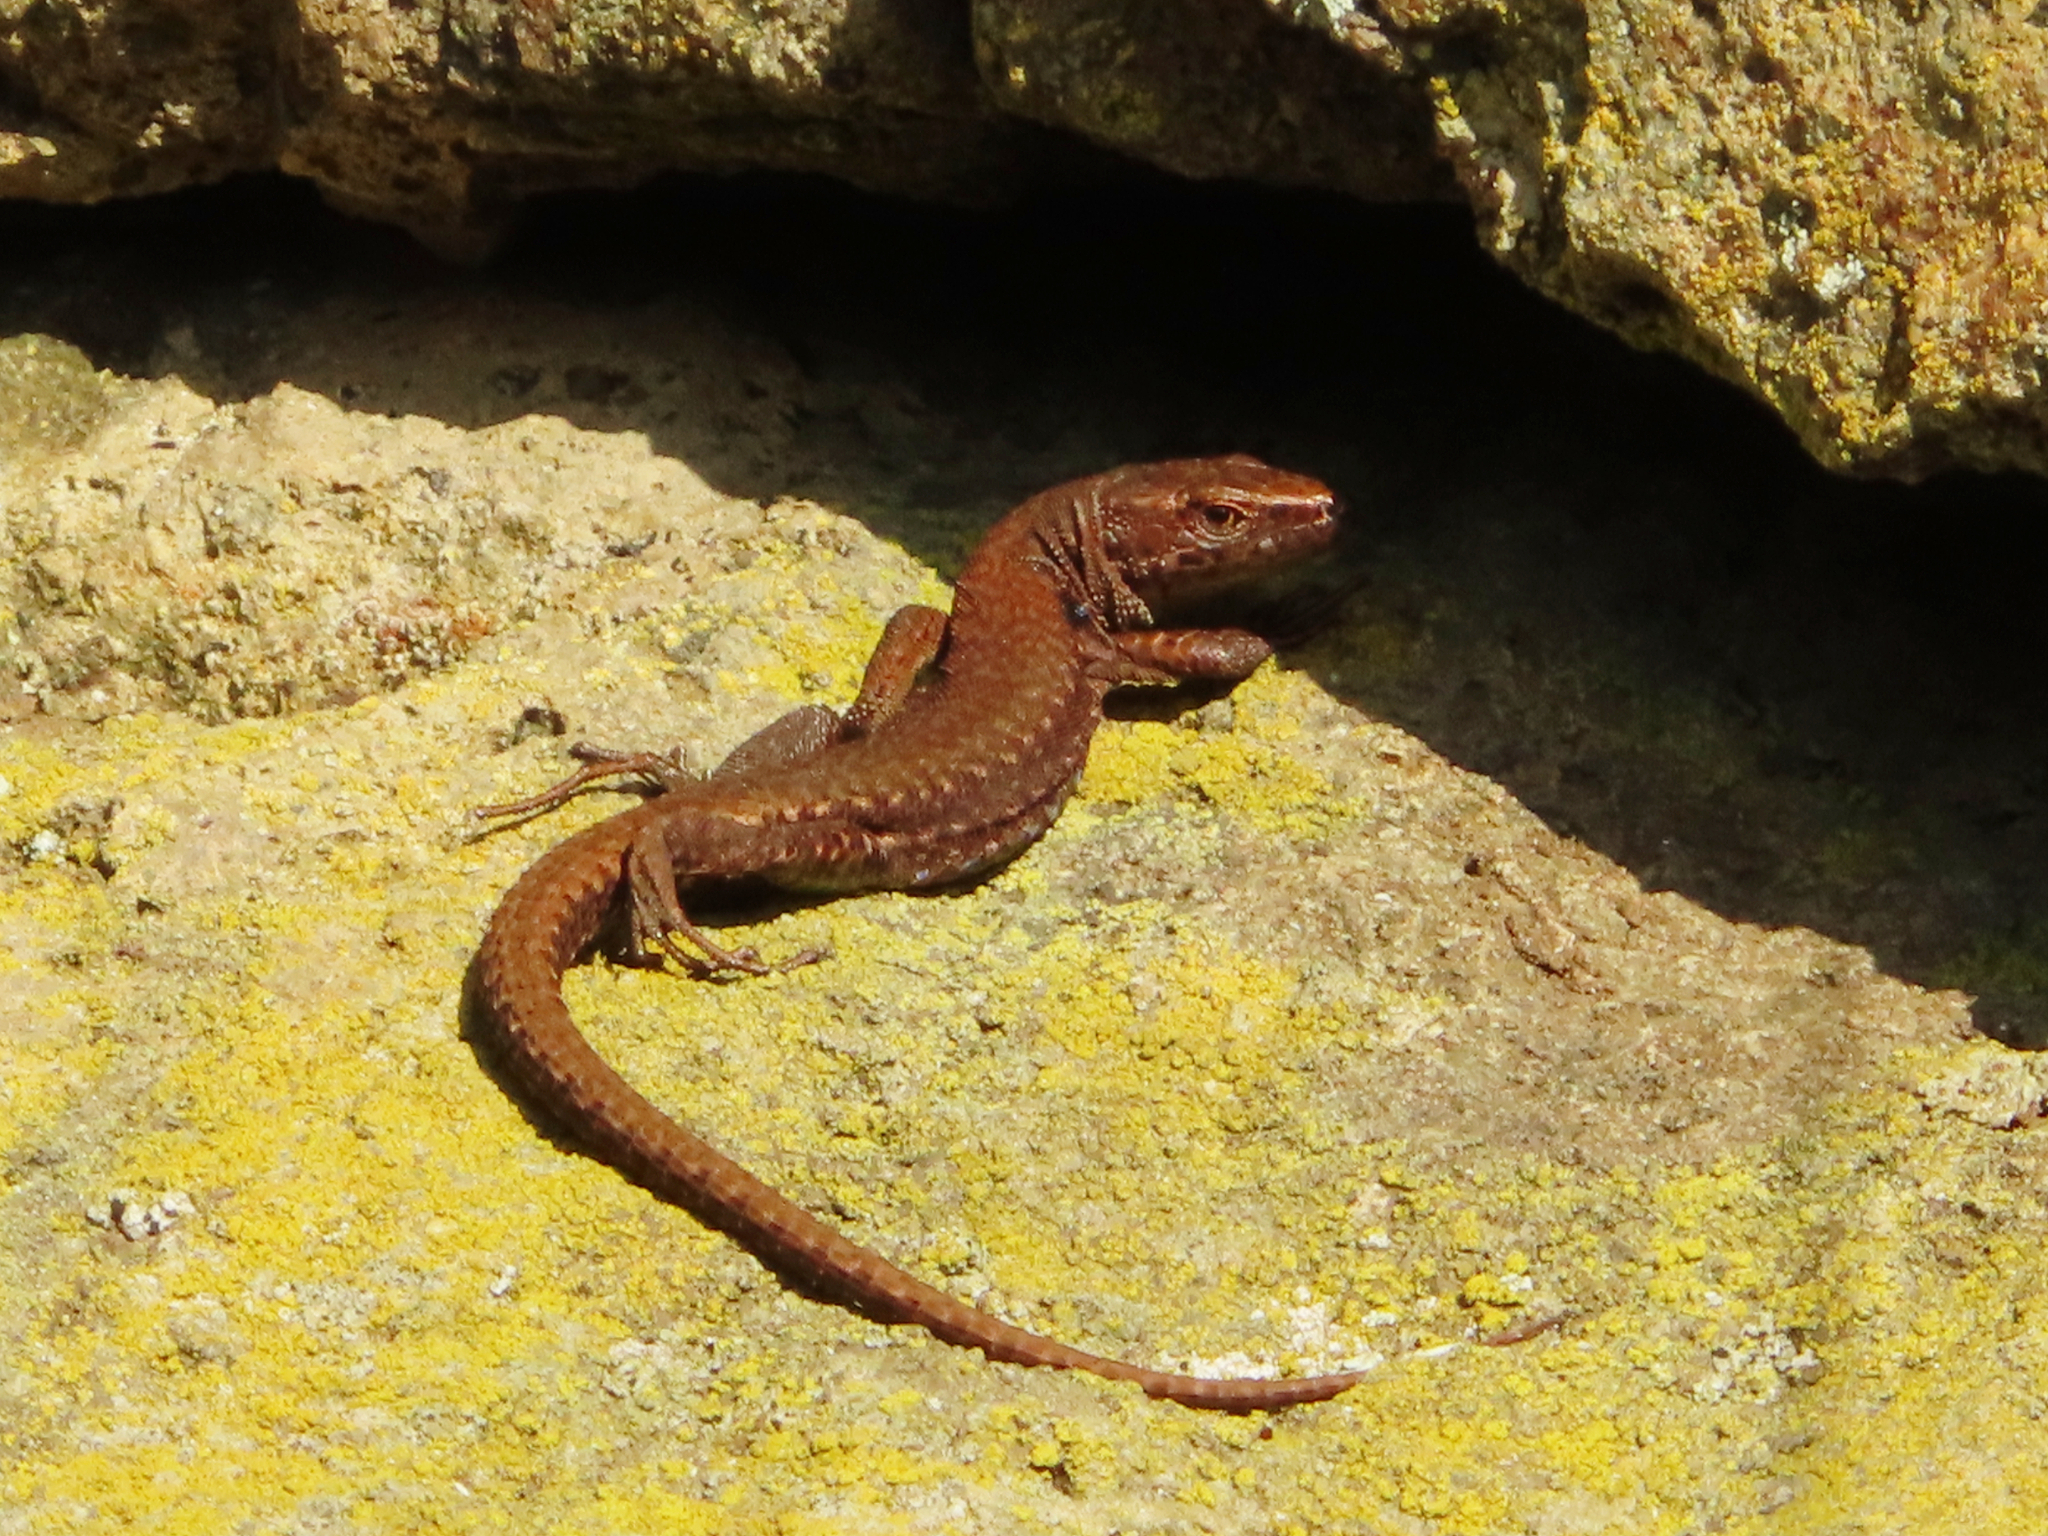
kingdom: Animalia
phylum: Chordata
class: Squamata
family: Lacertidae
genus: Darevskia
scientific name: Darevskia derjugini
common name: Derjugin's lizard
